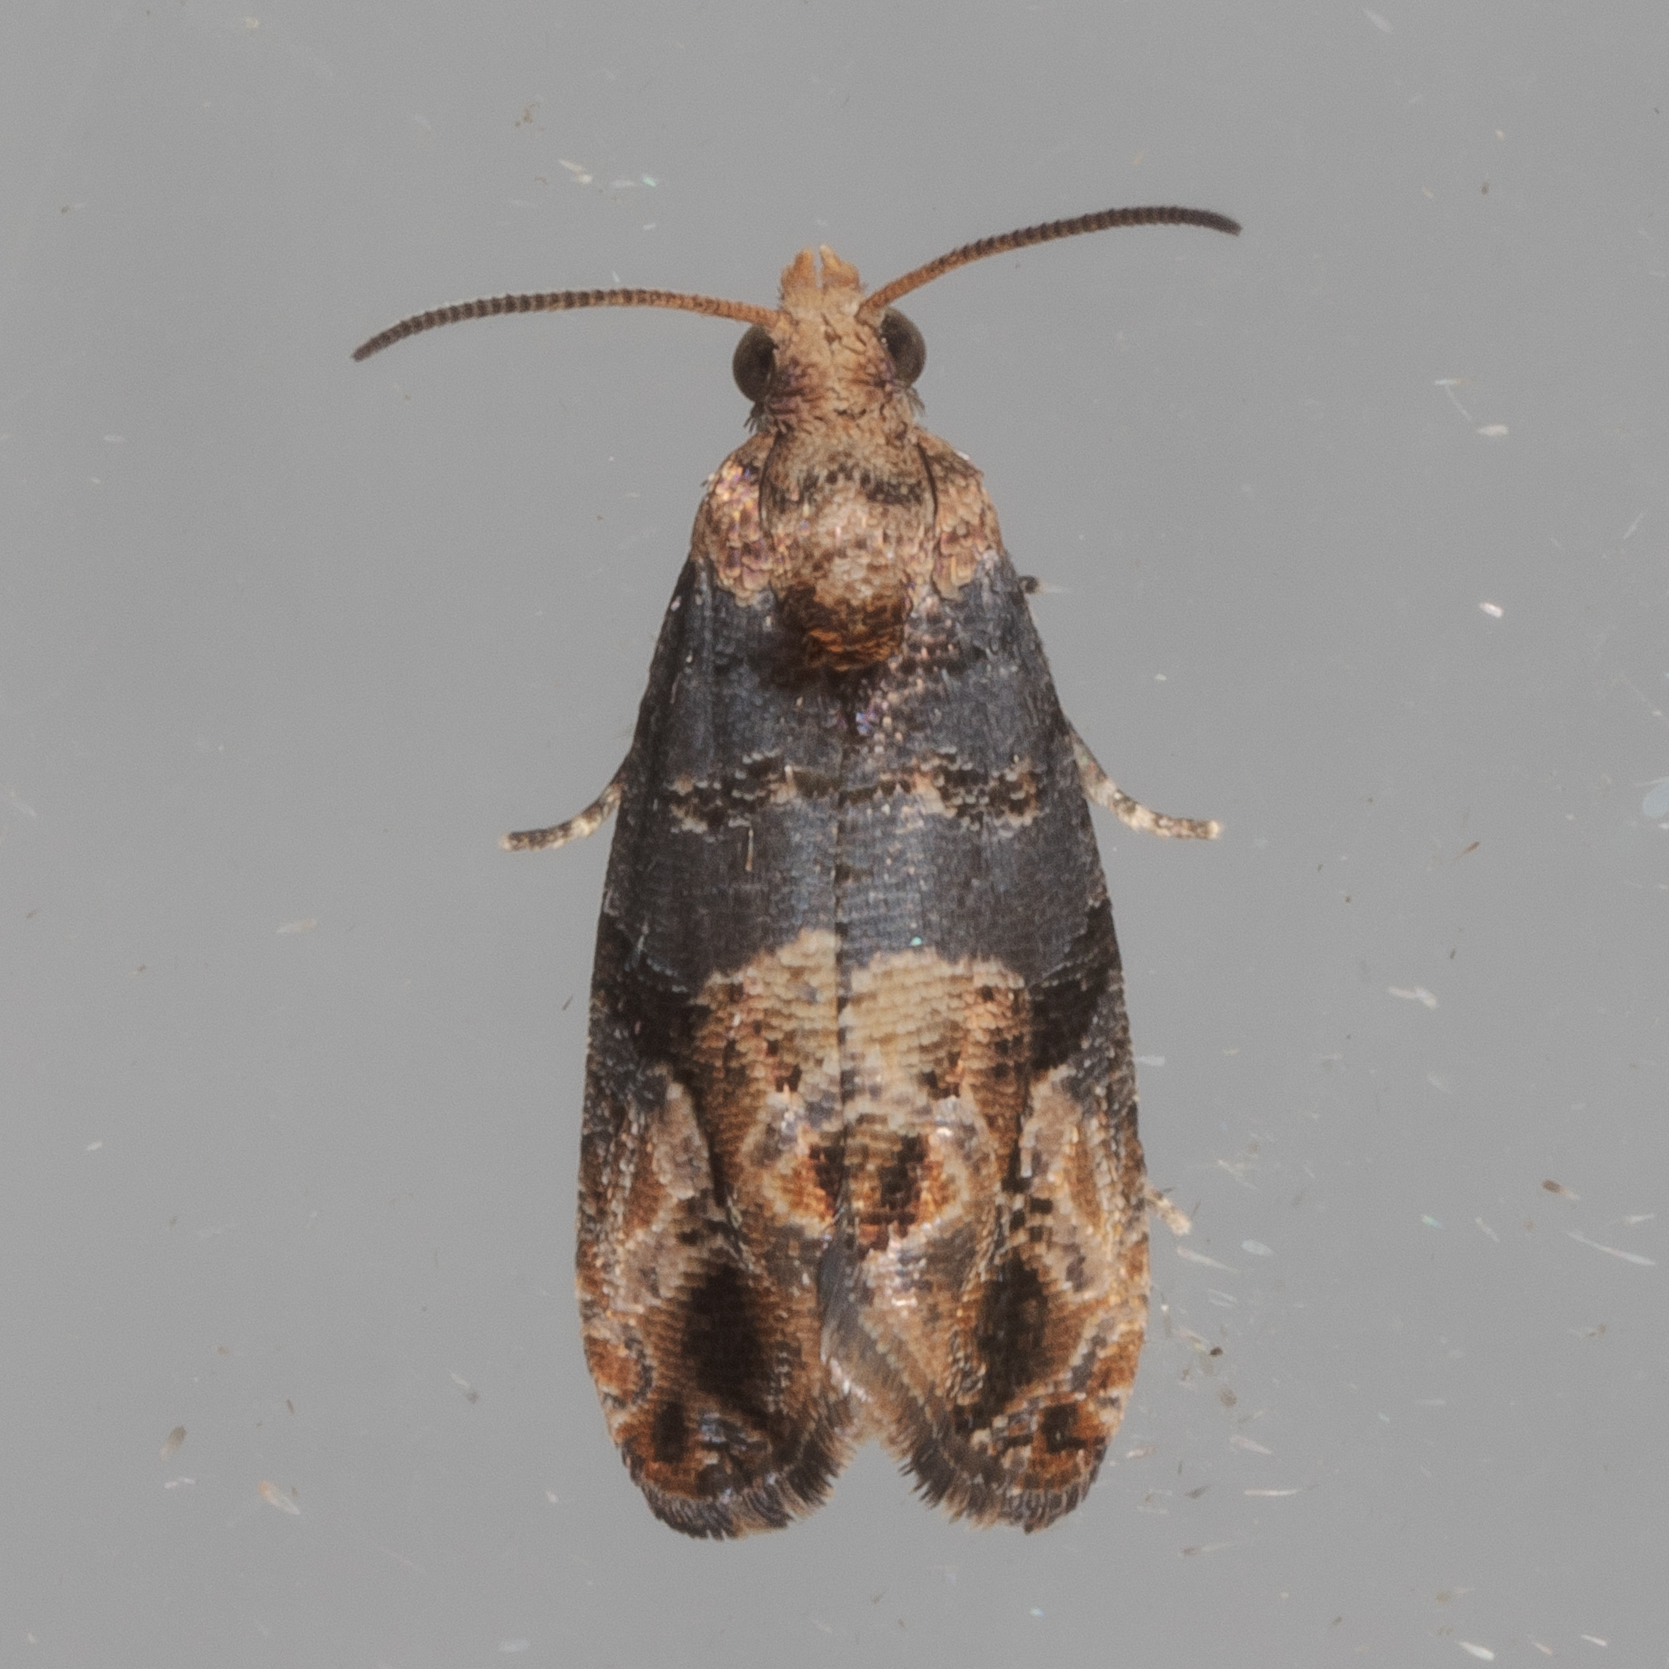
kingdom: Animalia
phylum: Arthropoda
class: Insecta
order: Lepidoptera
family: Tortricidae
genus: Paralobesia
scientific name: Paralobesia viteana
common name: Grape berry moth
